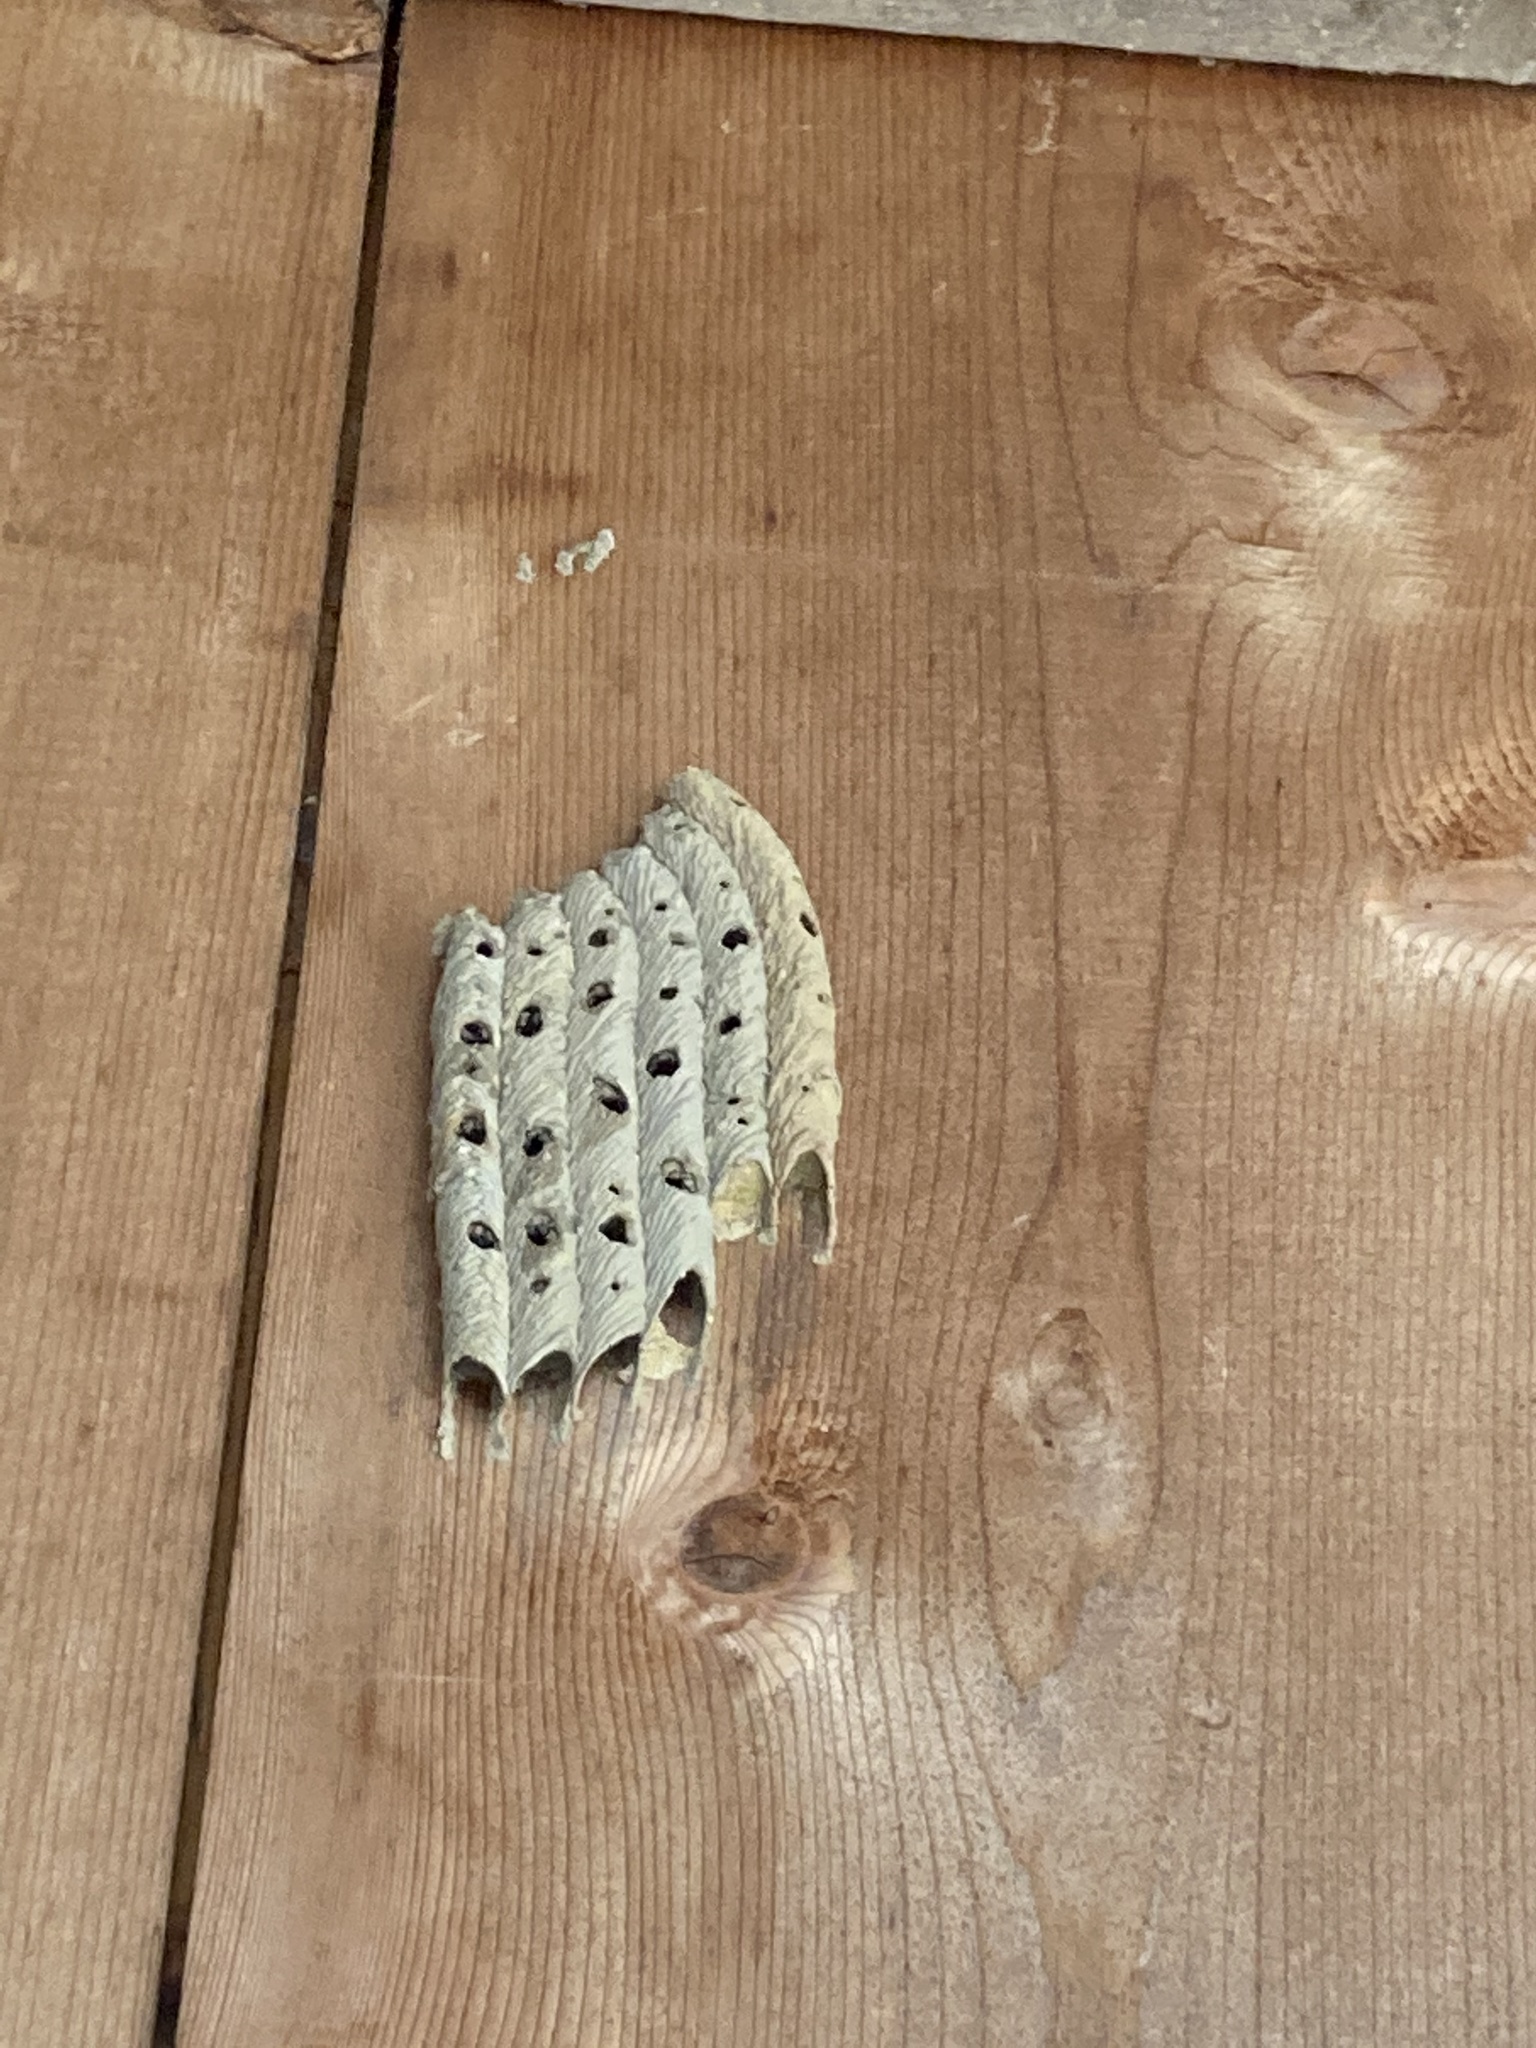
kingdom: Animalia
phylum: Arthropoda
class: Insecta
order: Hymenoptera
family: Crabronidae
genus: Trypoxylon
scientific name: Trypoxylon politum
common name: Organ-pipe mud-dauber wasp
